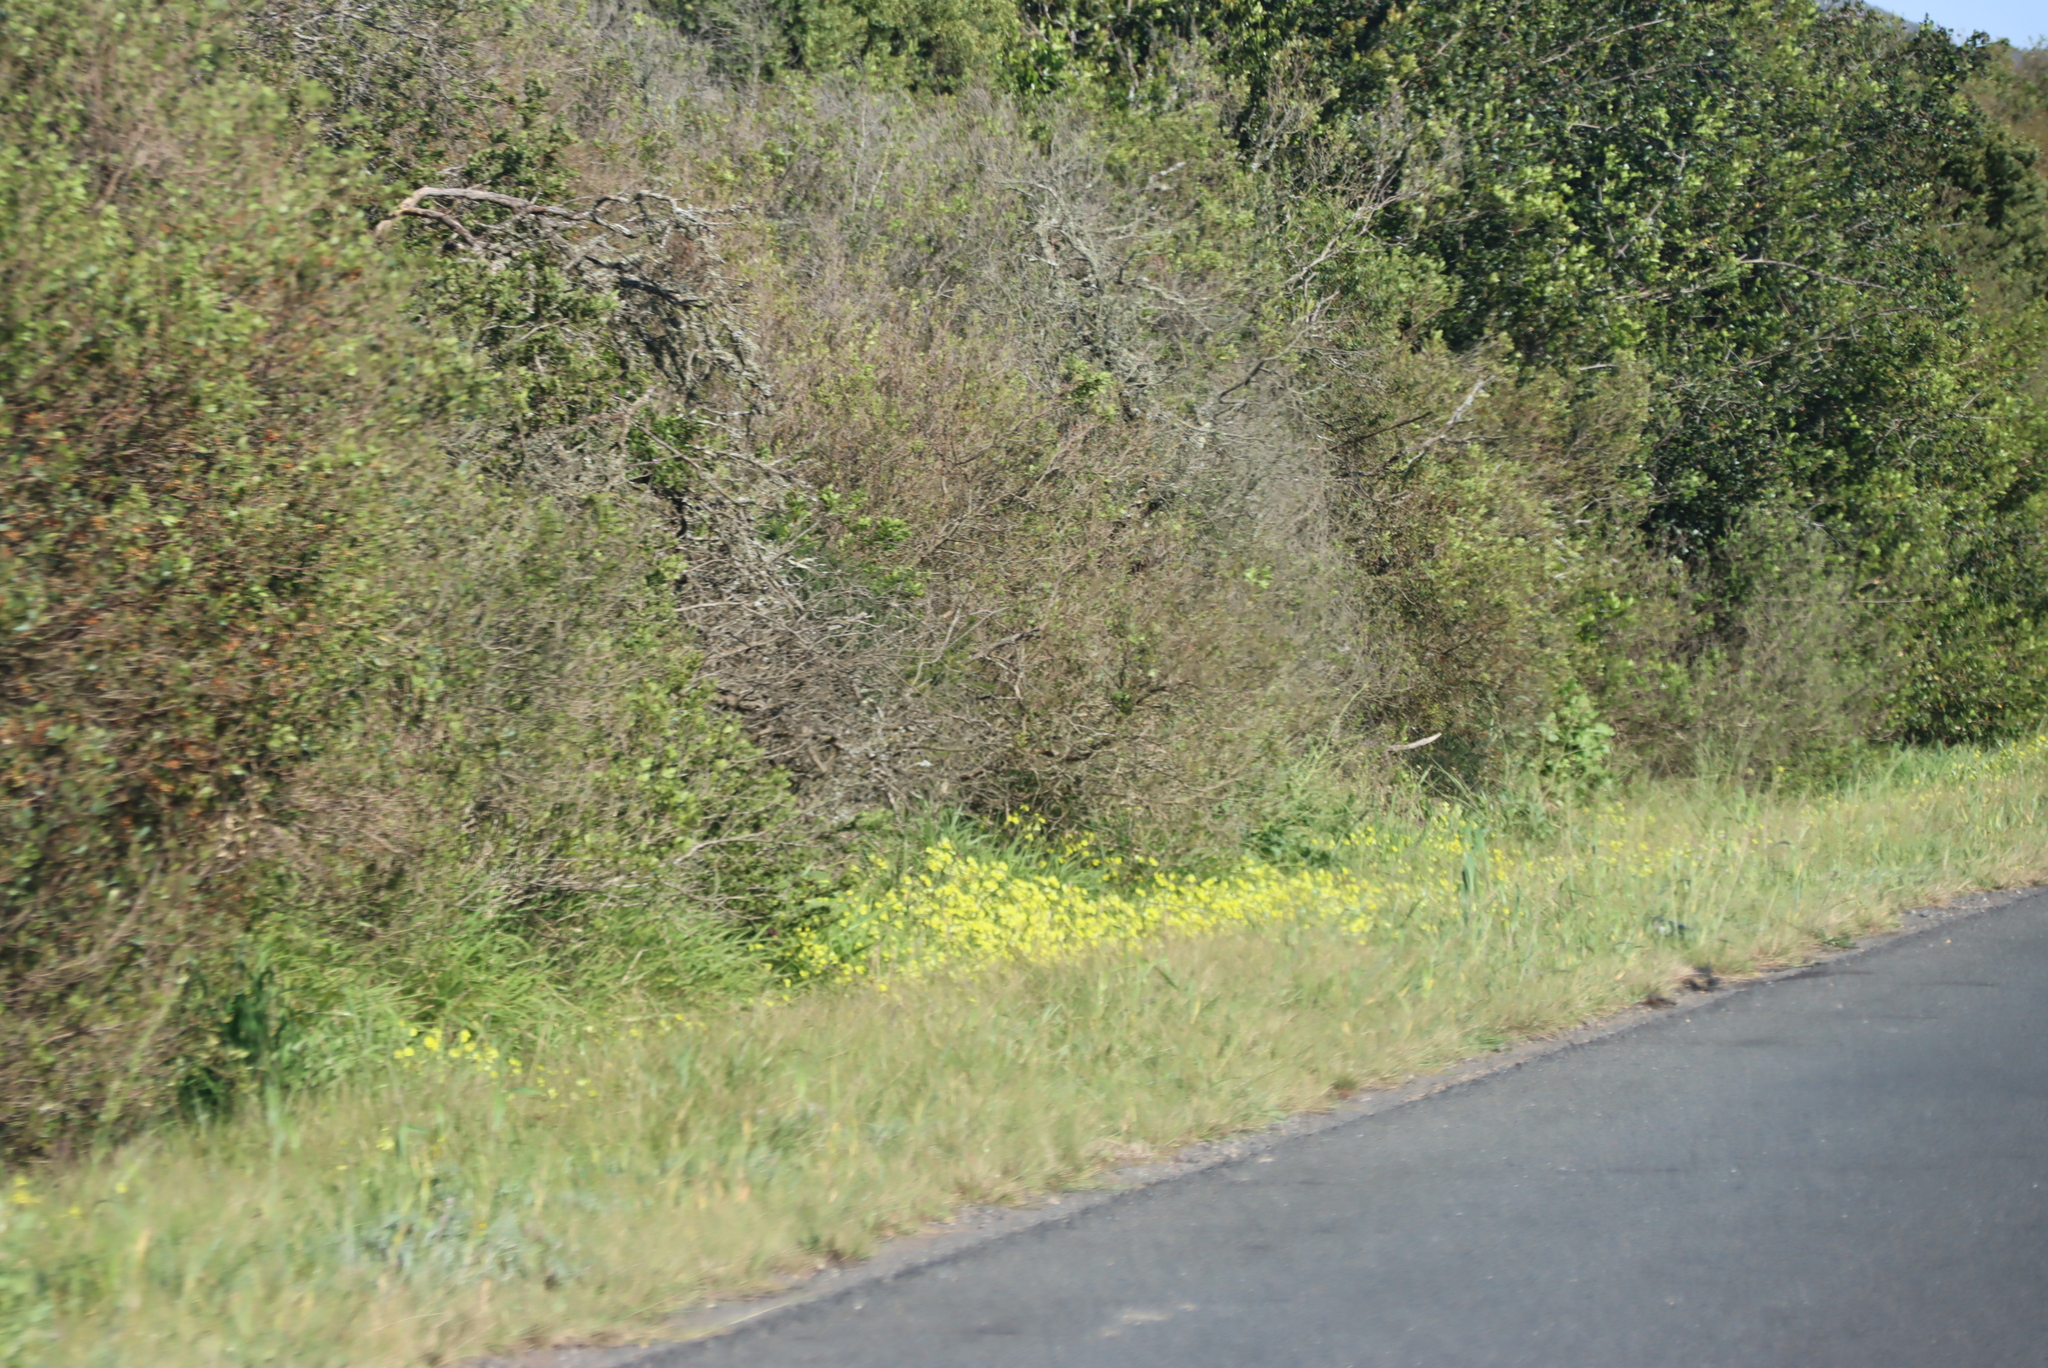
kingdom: Plantae
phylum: Tracheophyta
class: Magnoliopsida
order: Oxalidales
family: Oxalidaceae
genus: Oxalis
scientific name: Oxalis pes-caprae
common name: Bermuda-buttercup
